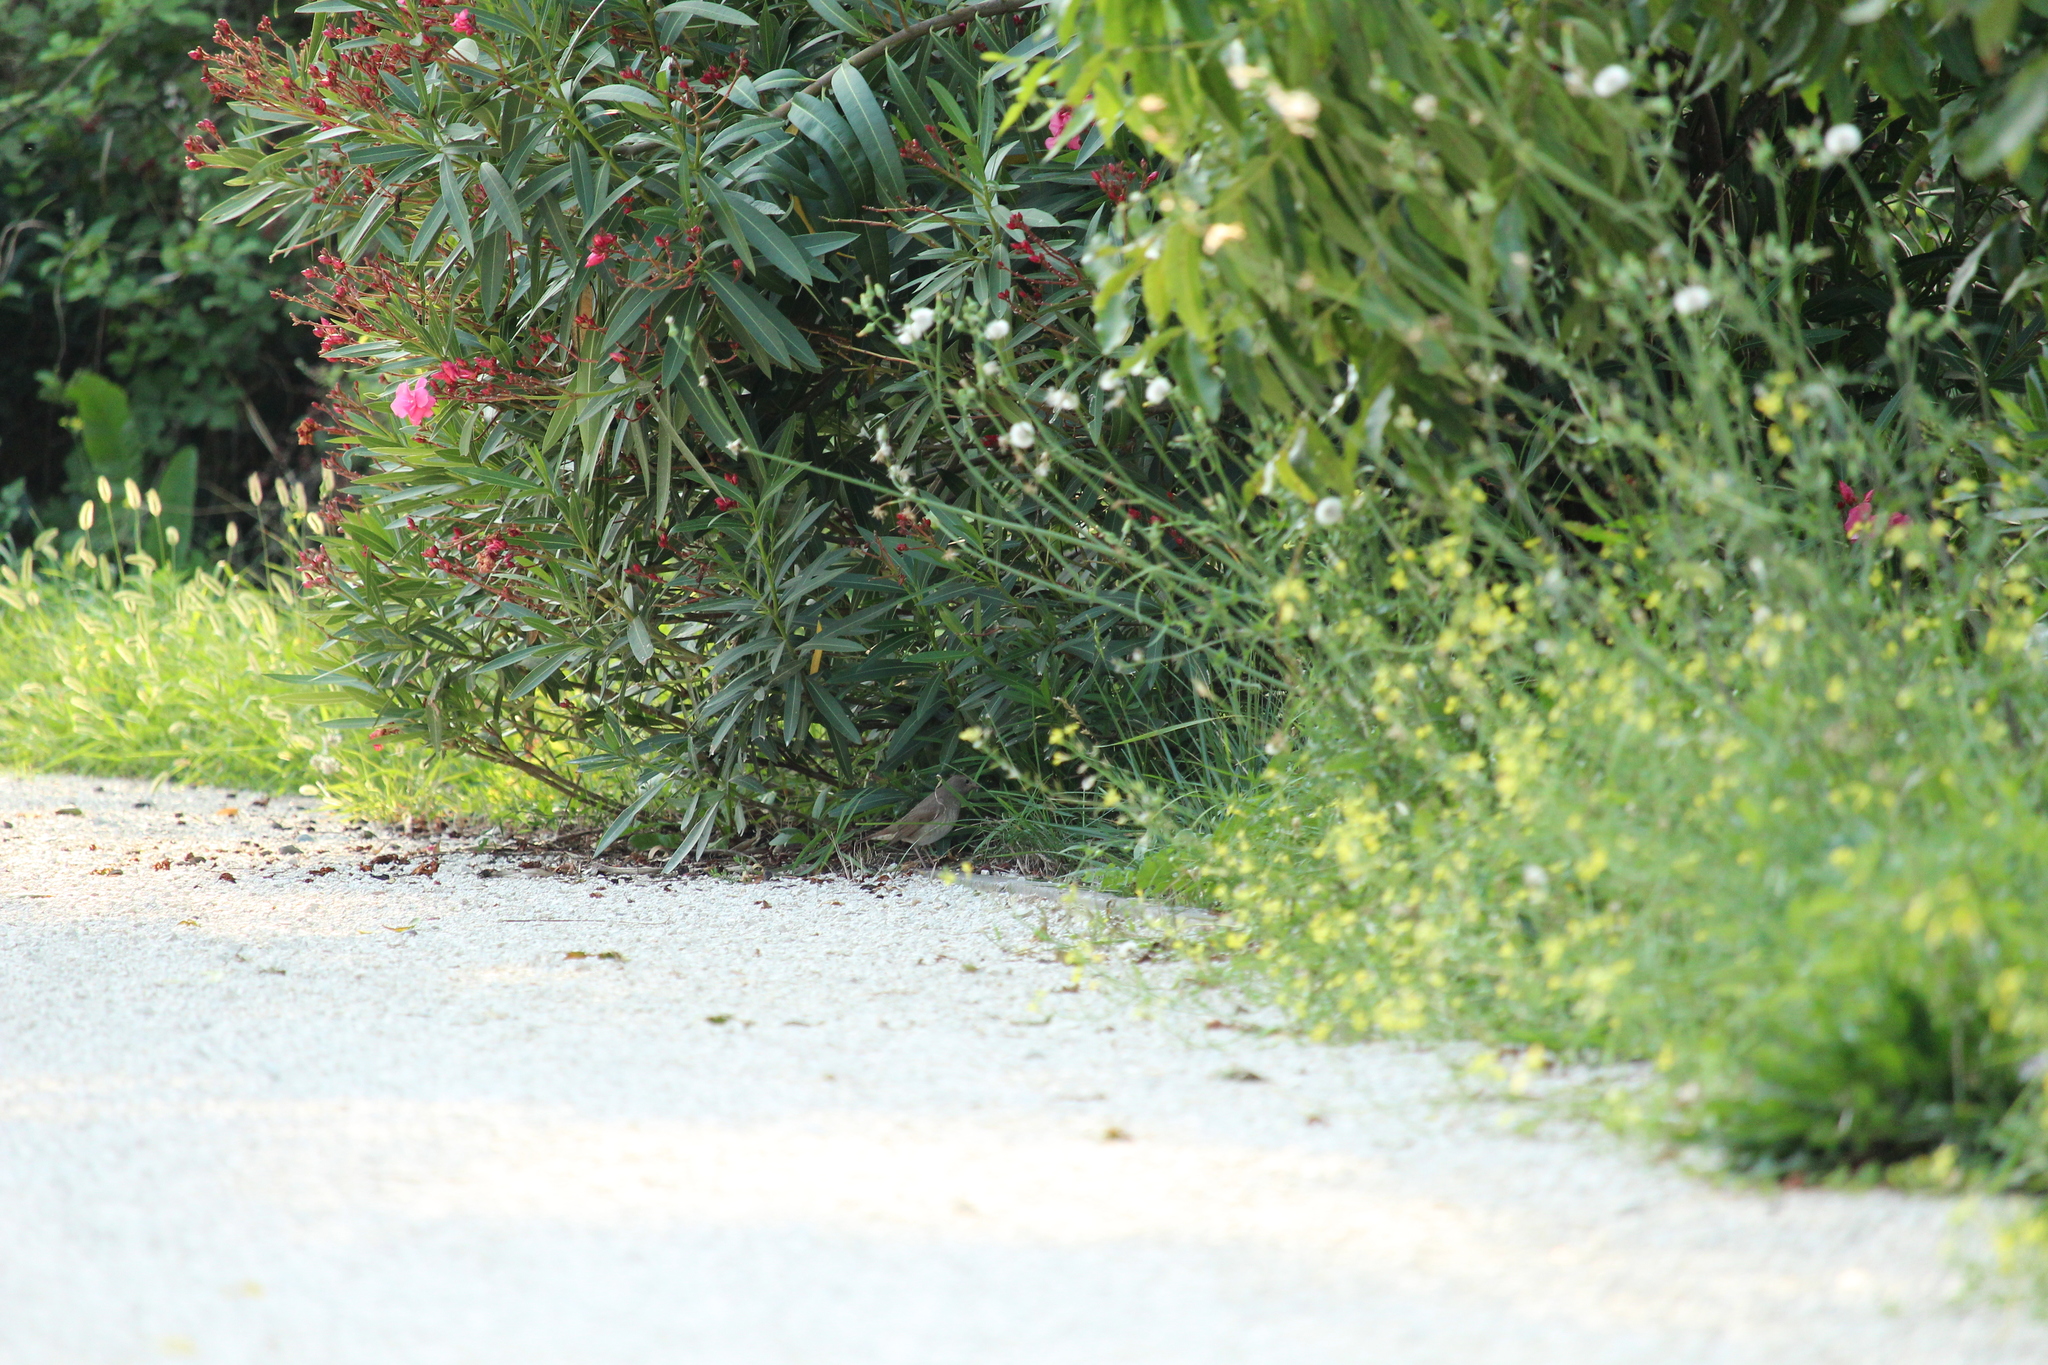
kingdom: Animalia
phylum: Chordata
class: Aves
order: Passeriformes
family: Muscicapidae
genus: Luscinia
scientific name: Luscinia luscinia
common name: Thrush nightingale
